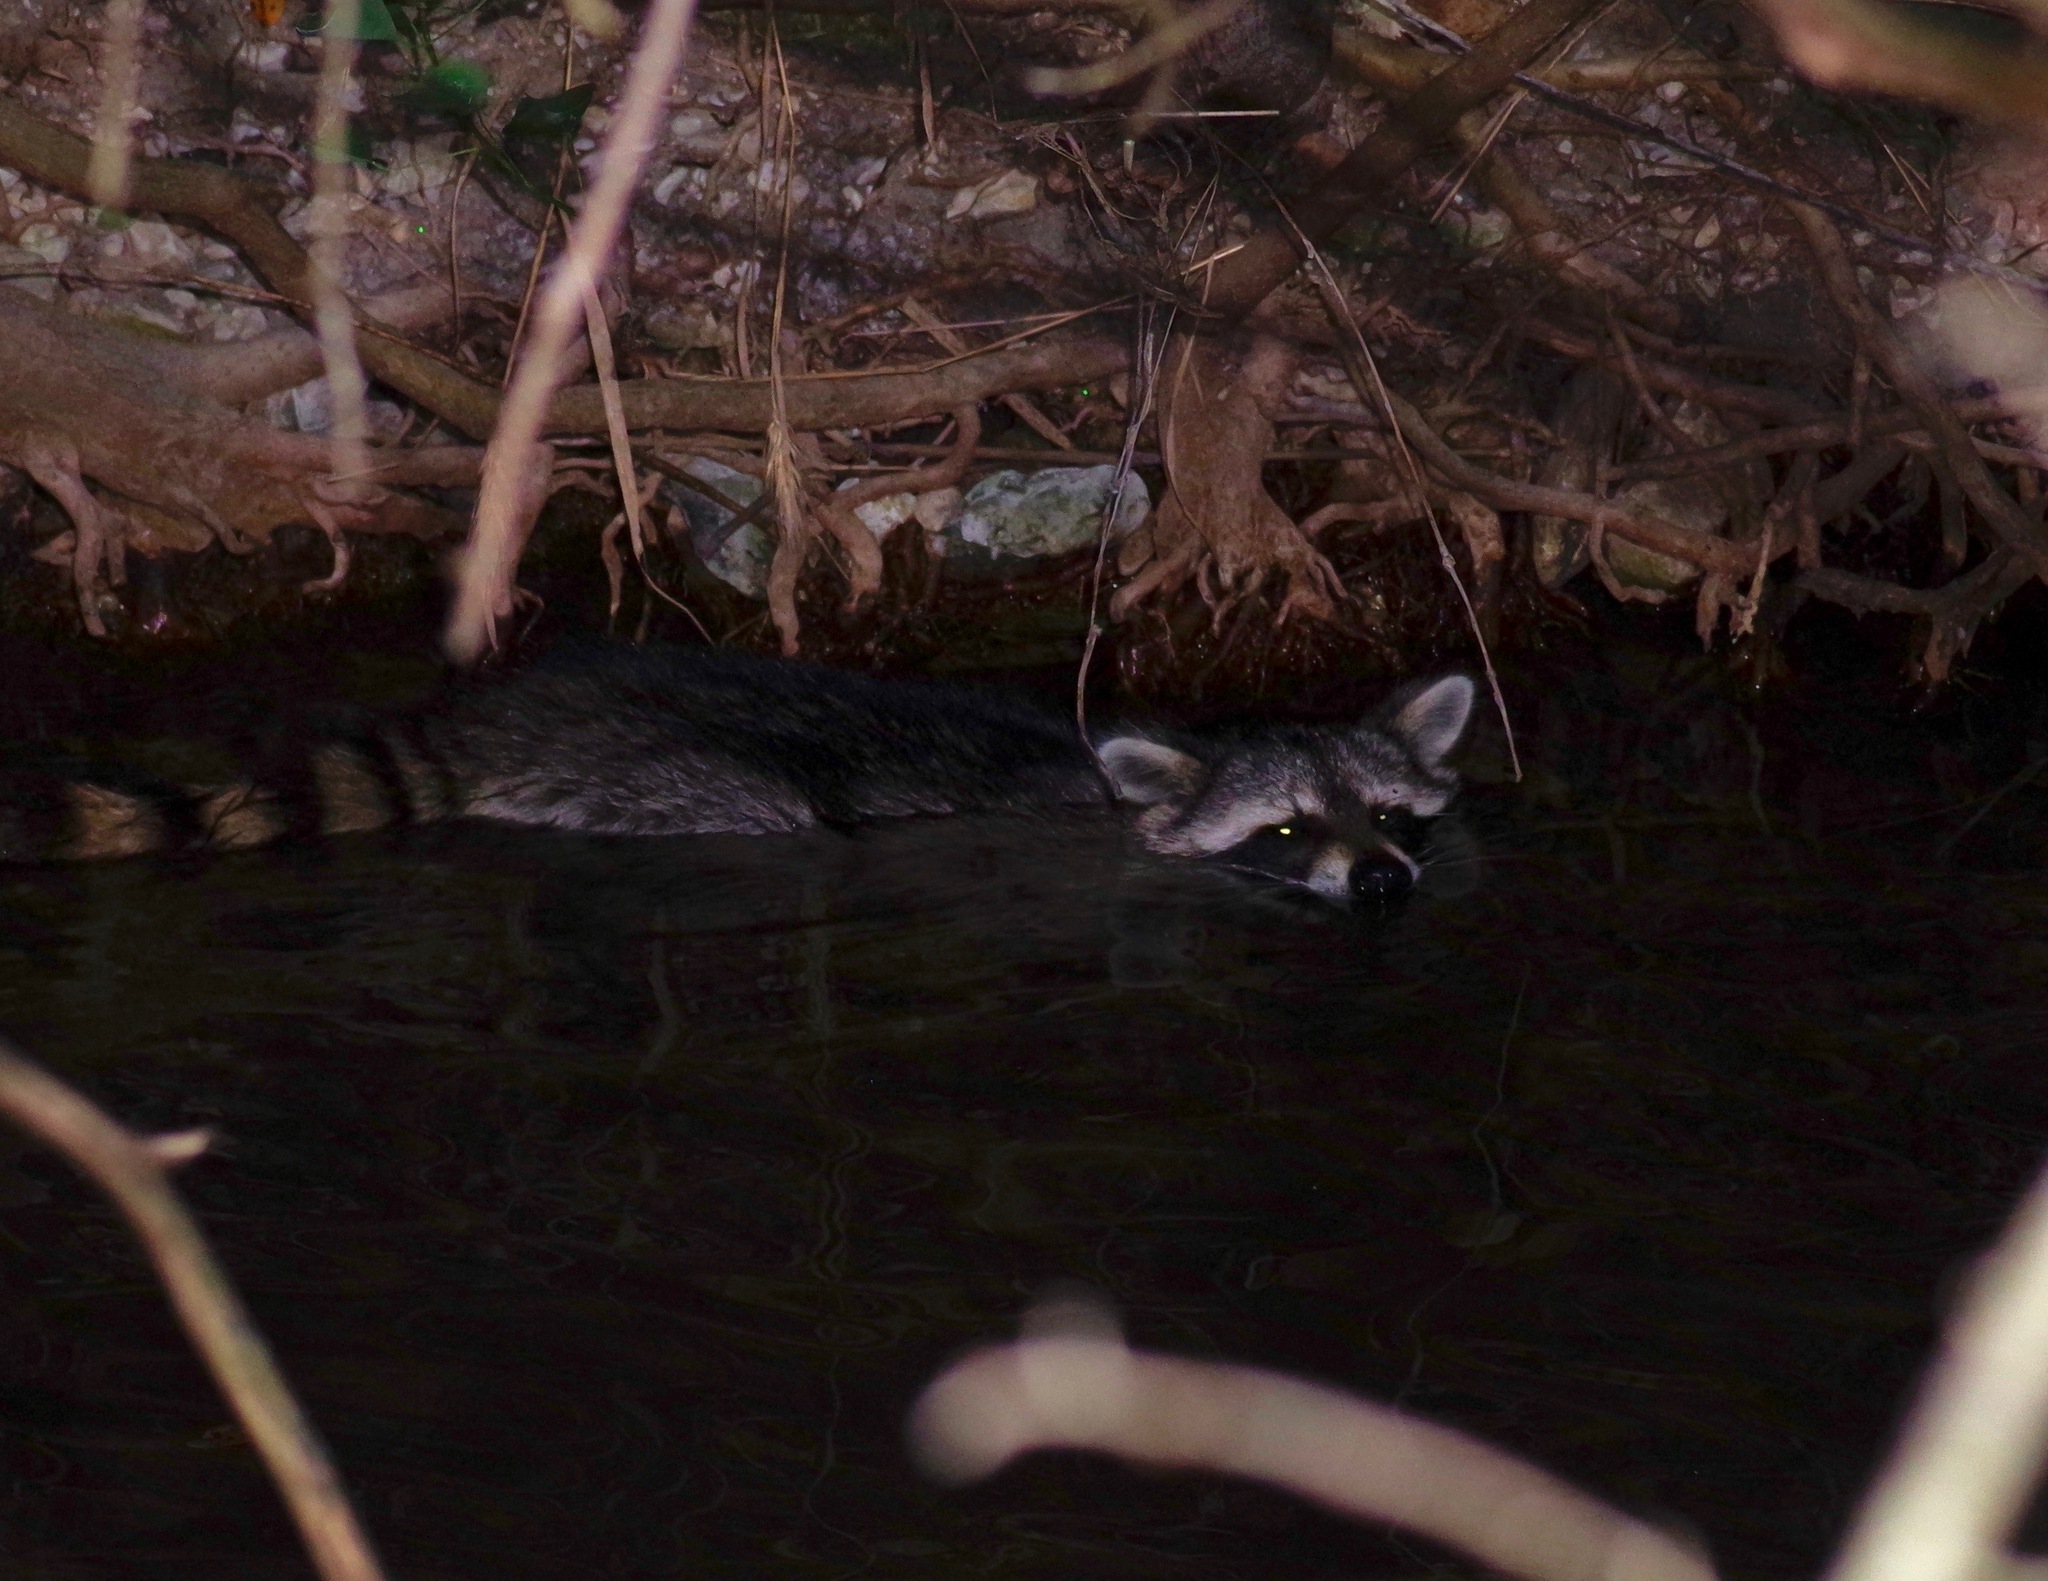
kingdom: Animalia
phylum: Chordata
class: Mammalia
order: Carnivora
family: Procyonidae
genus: Procyon
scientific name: Procyon lotor
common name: Raccoon
